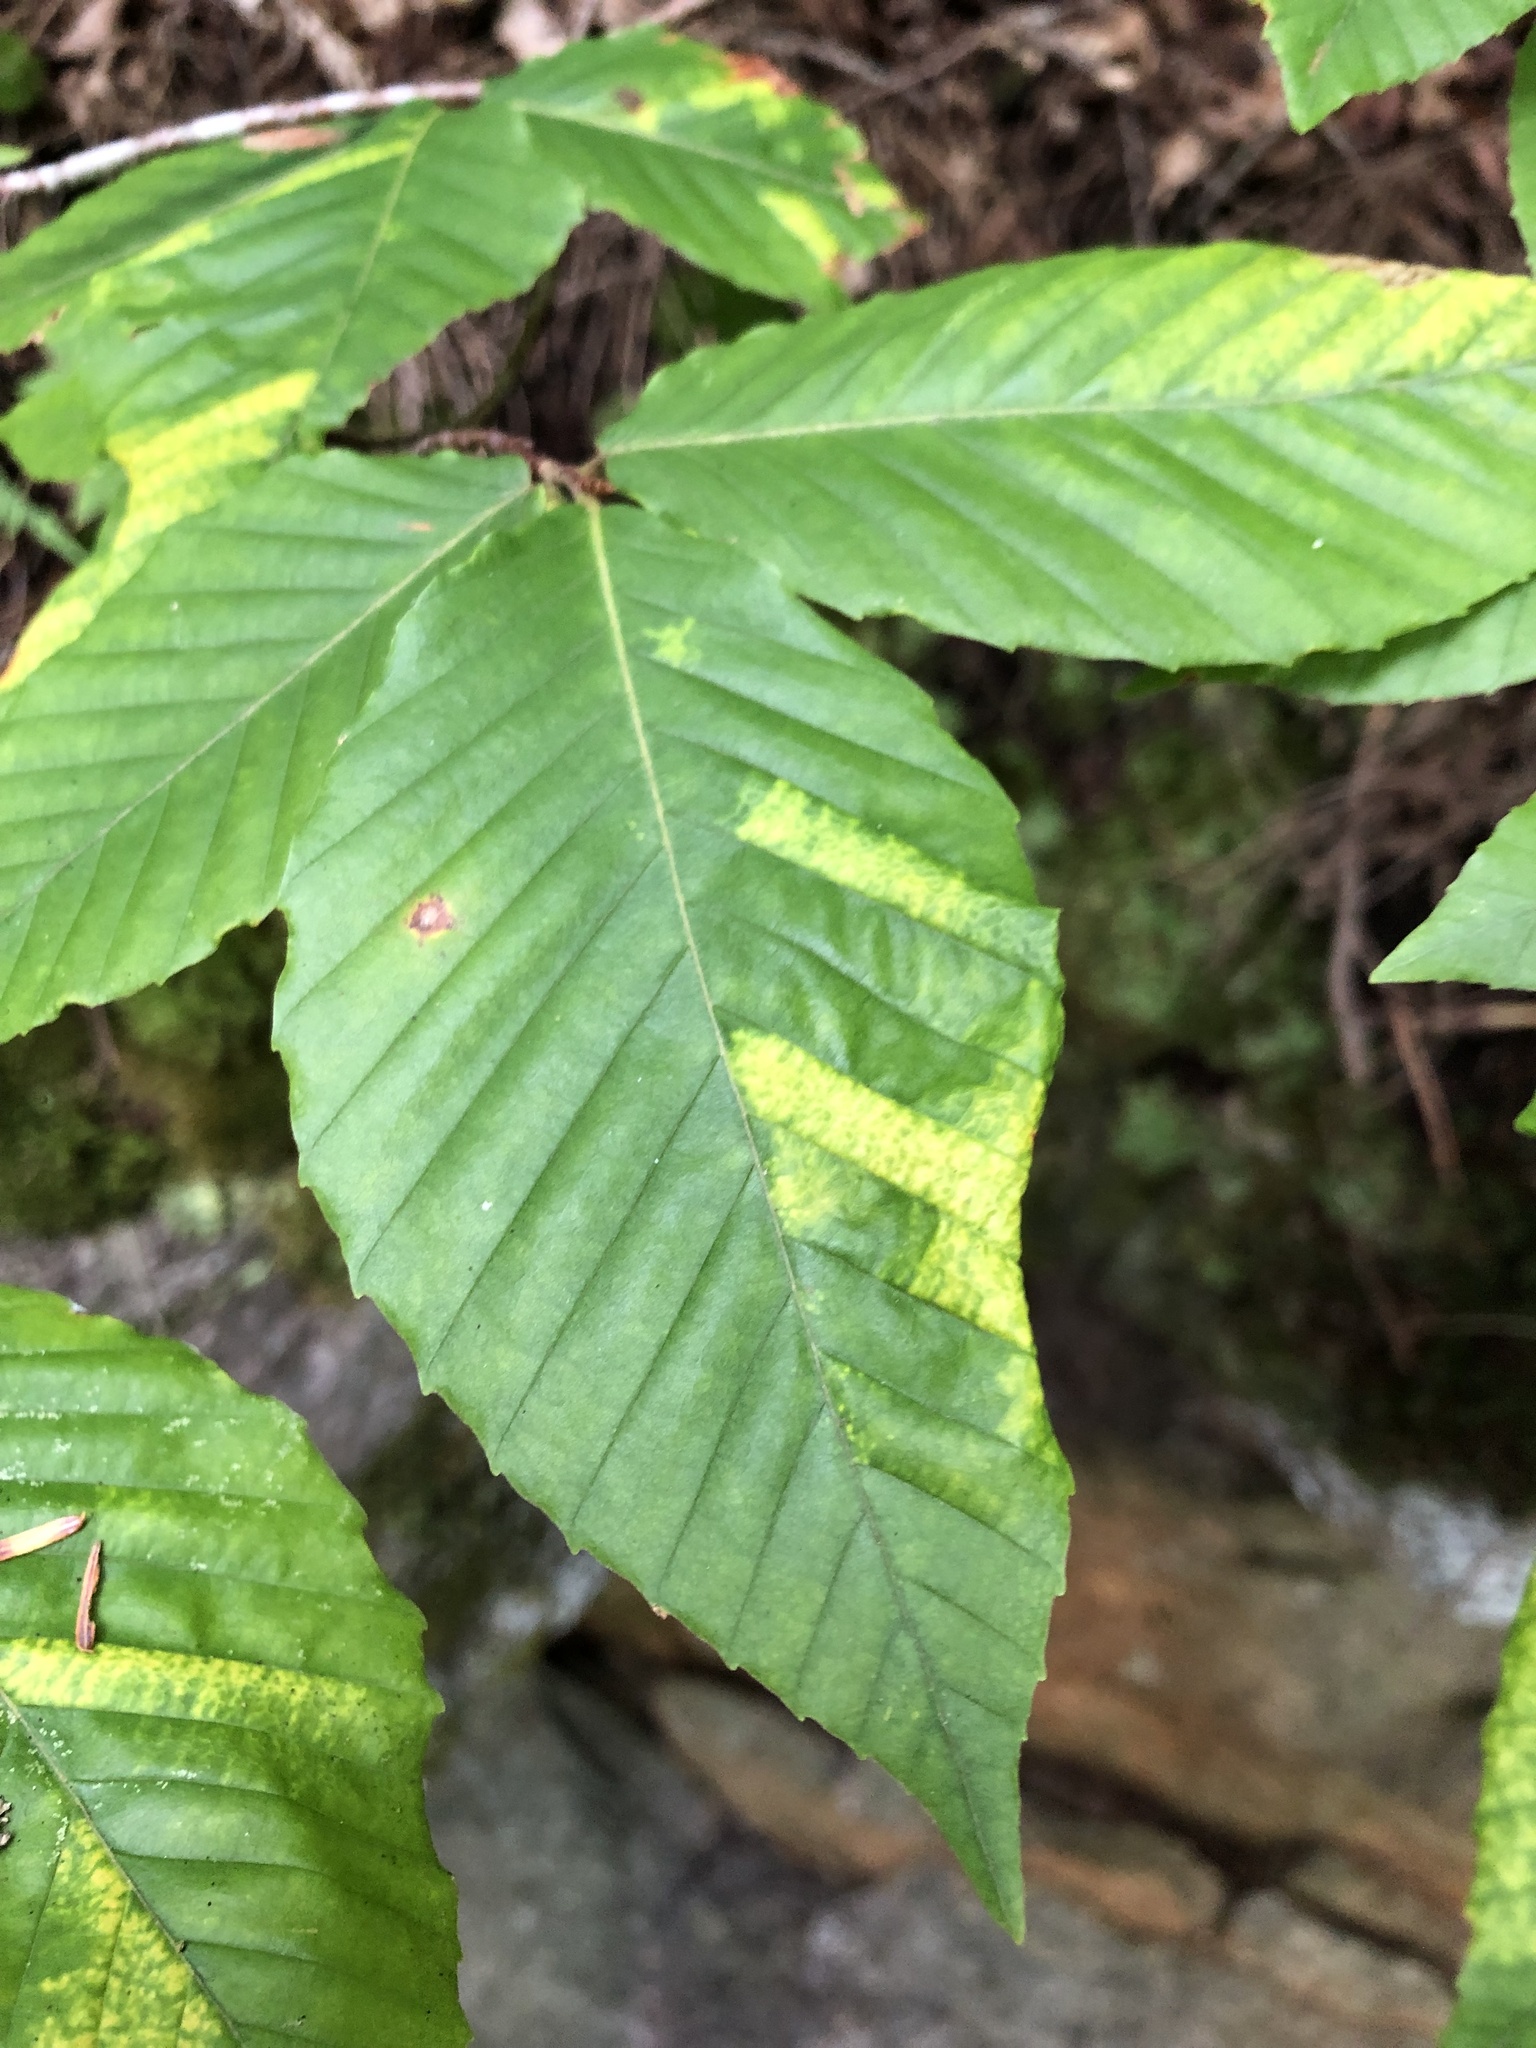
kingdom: Plantae
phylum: Tracheophyta
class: Magnoliopsida
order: Fagales
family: Fagaceae
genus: Fagus
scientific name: Fagus grandifolia
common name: American beech
